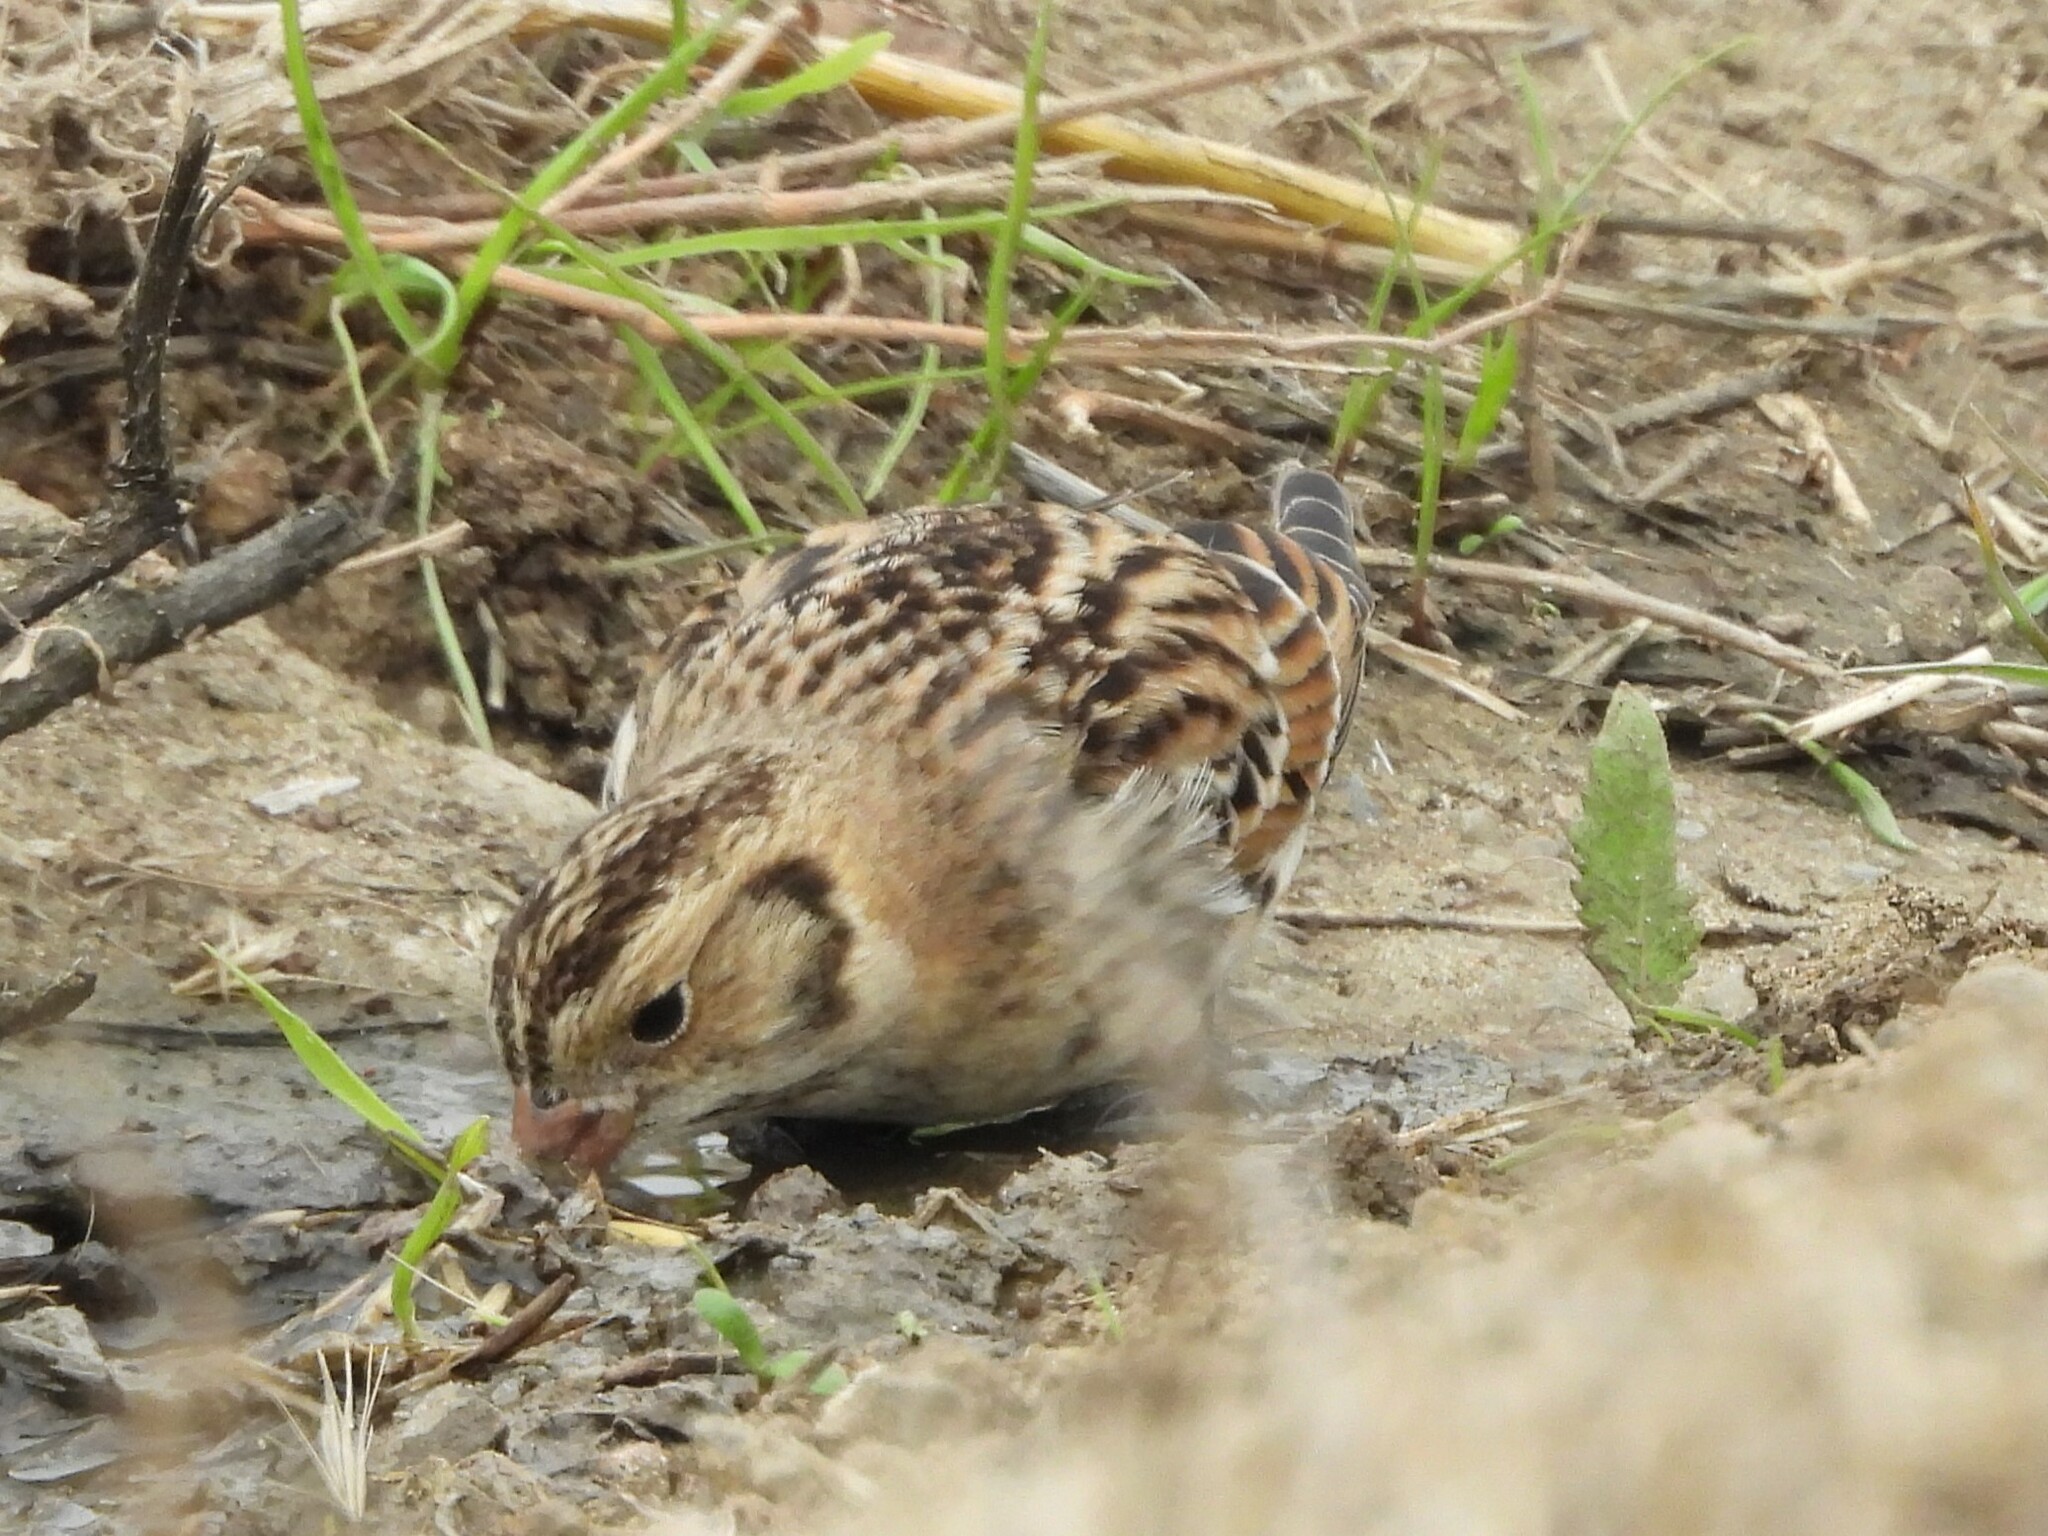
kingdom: Animalia
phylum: Chordata
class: Aves
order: Passeriformes
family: Calcariidae
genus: Calcarius
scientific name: Calcarius lapponicus
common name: Lapland longspur
